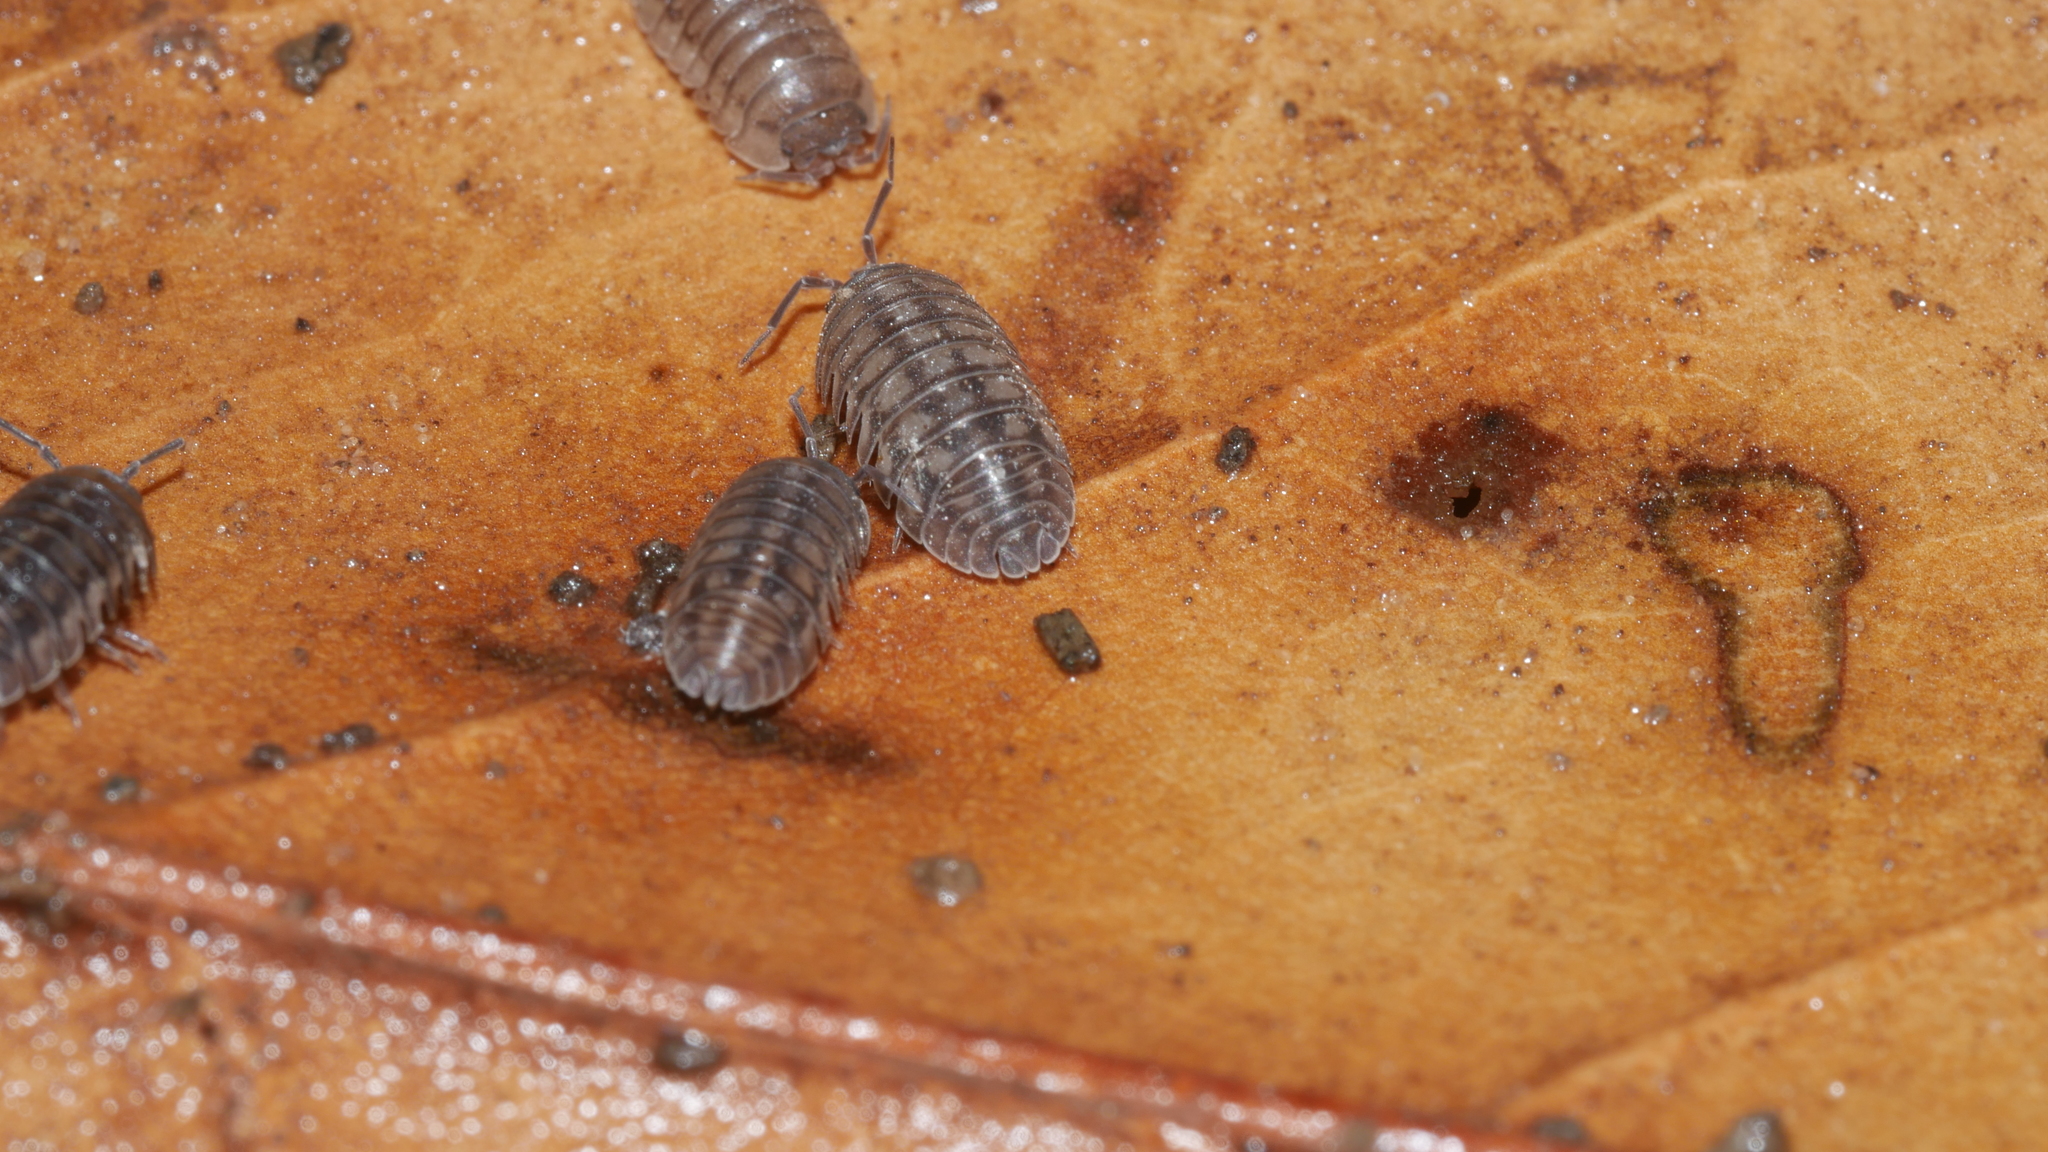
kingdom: Animalia
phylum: Arthropoda
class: Malacostraca
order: Isopoda
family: Armadillidiidae
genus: Armadillidium
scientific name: Armadillidium nasatum
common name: Isopod
